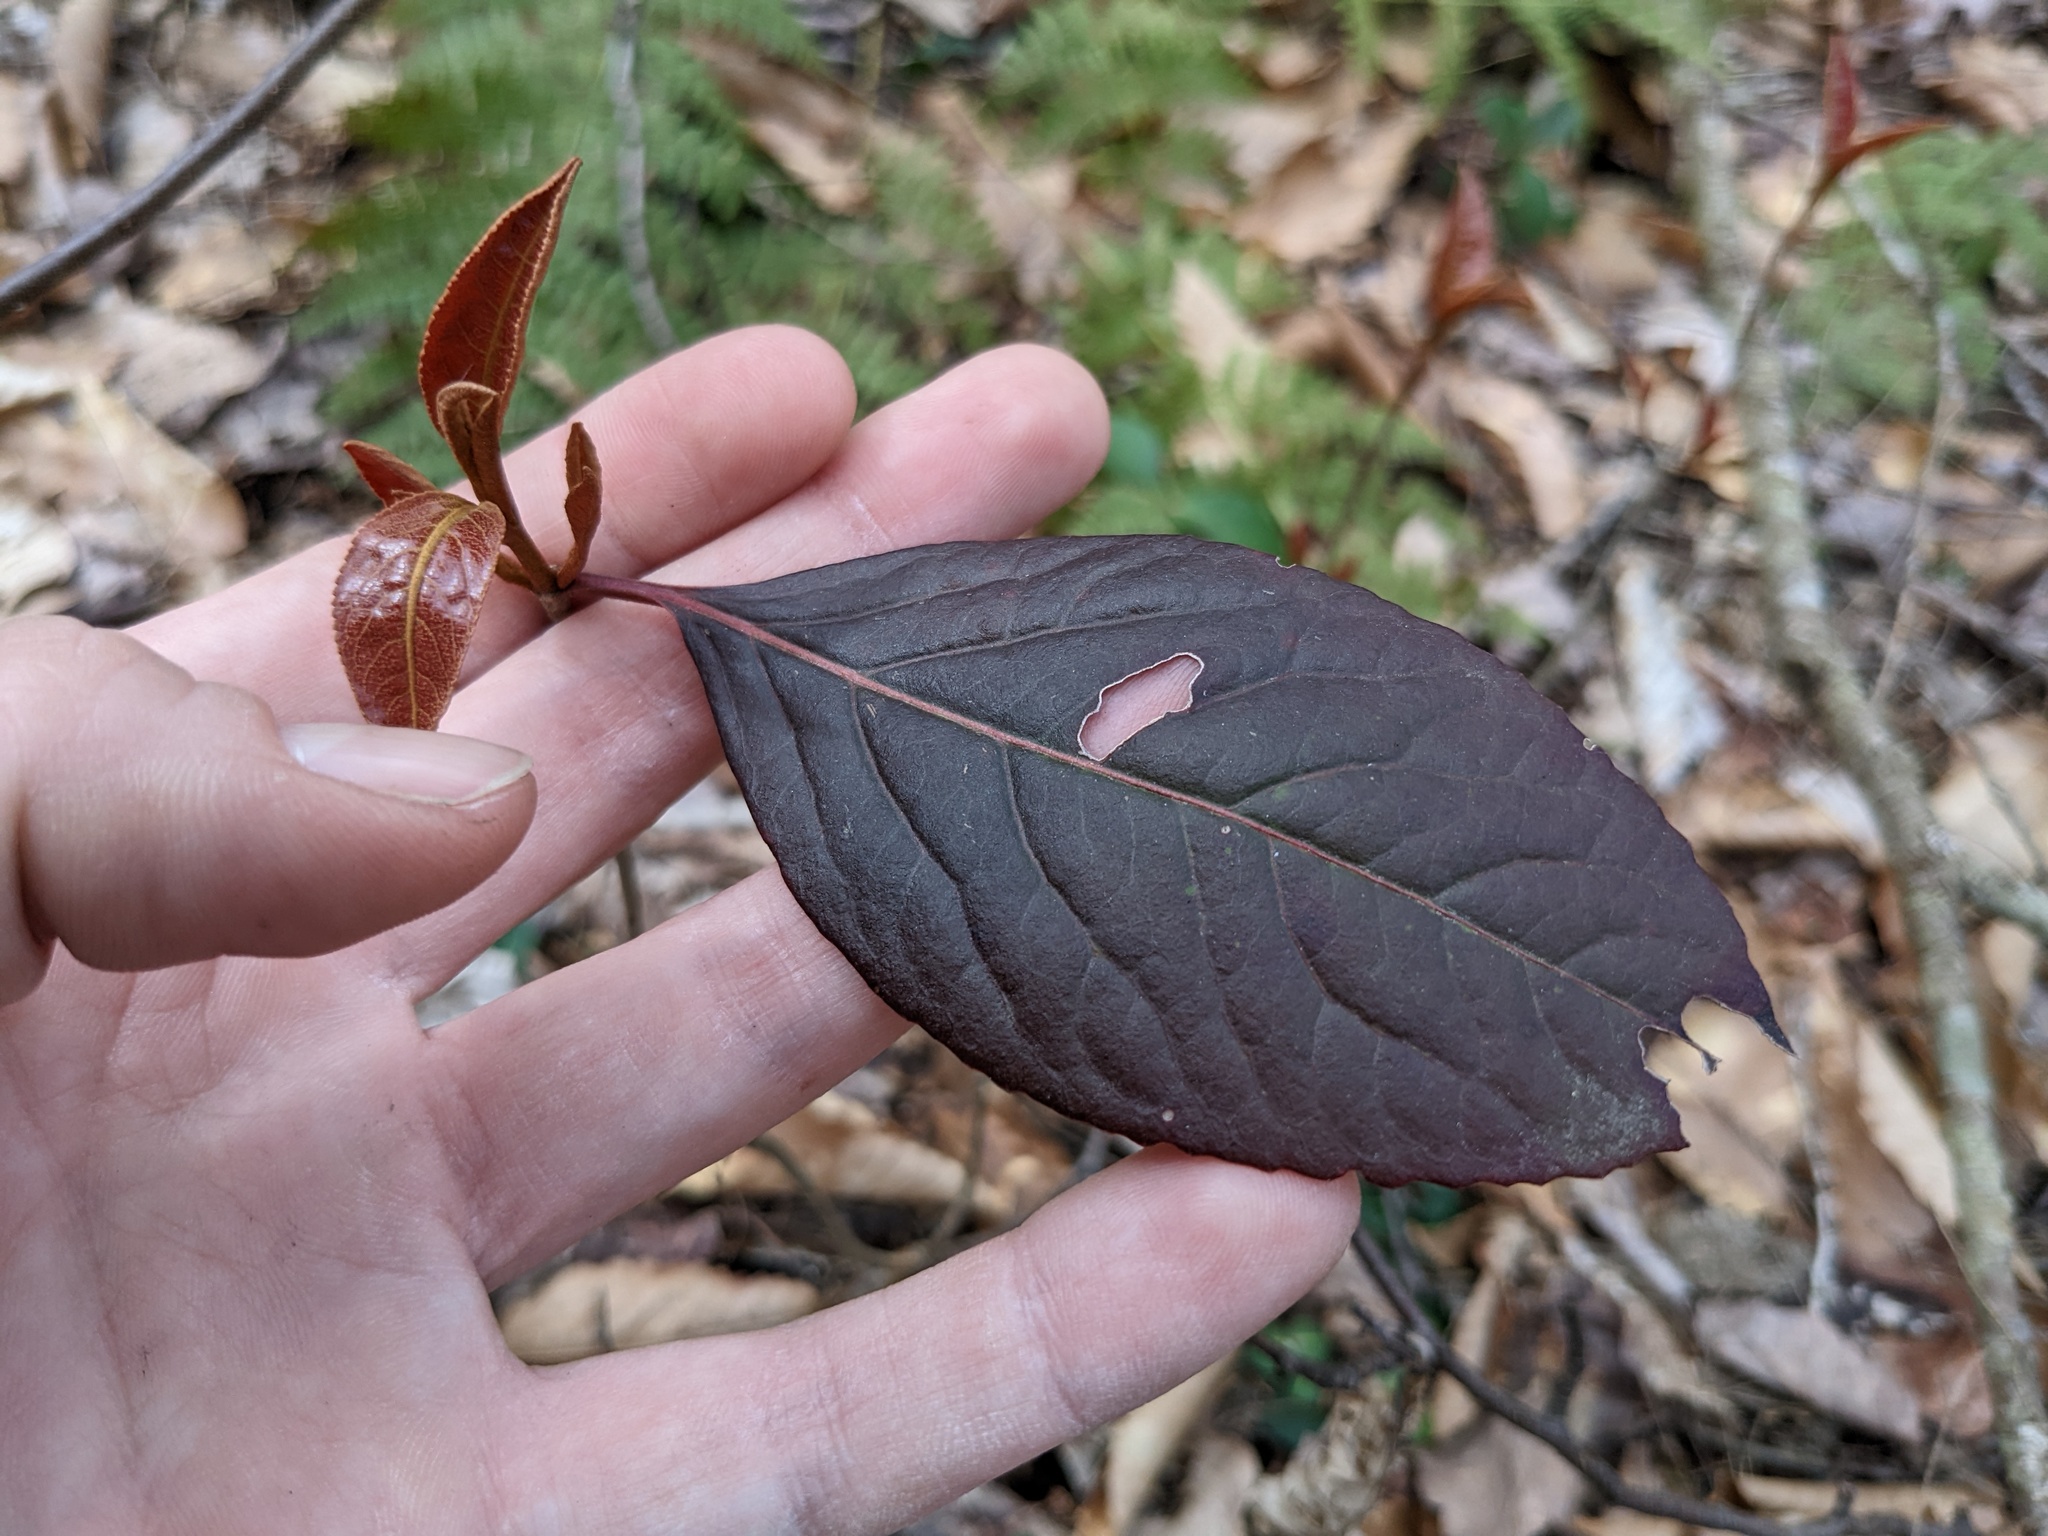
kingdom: Plantae
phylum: Tracheophyta
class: Magnoliopsida
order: Dipsacales
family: Viburnaceae
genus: Viburnum
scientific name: Viburnum cassinoides
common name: Swamp haw
